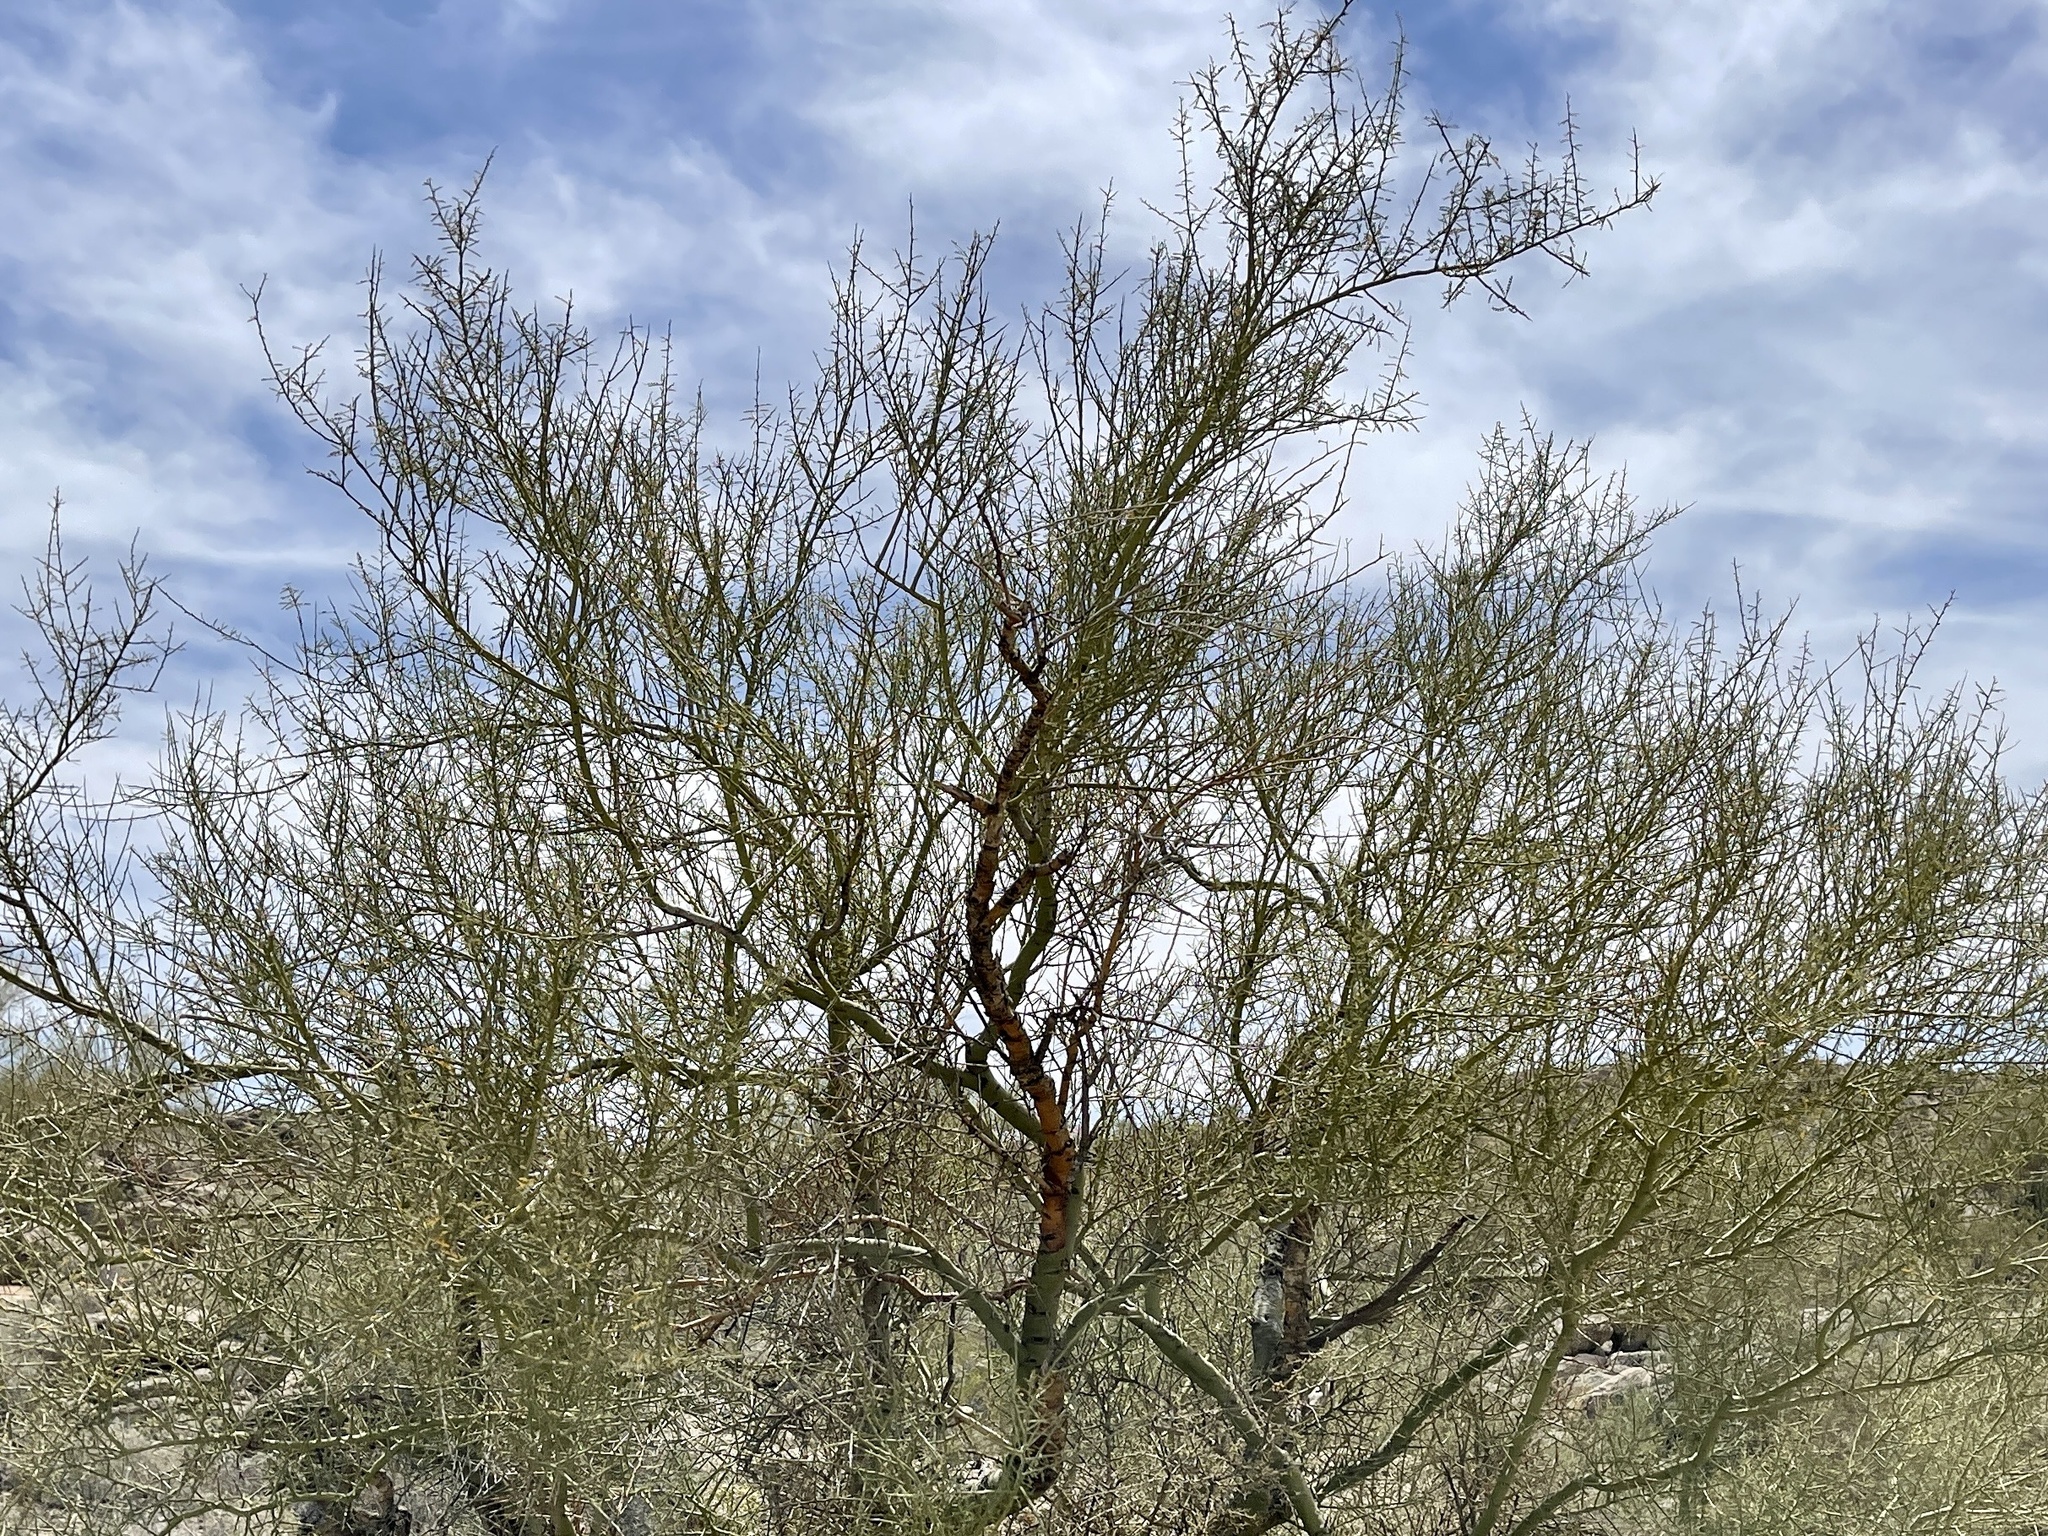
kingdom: Plantae
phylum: Tracheophyta
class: Magnoliopsida
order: Fabales
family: Fabaceae
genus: Parkinsonia
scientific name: Parkinsonia microphylla
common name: Yellow paloverde
